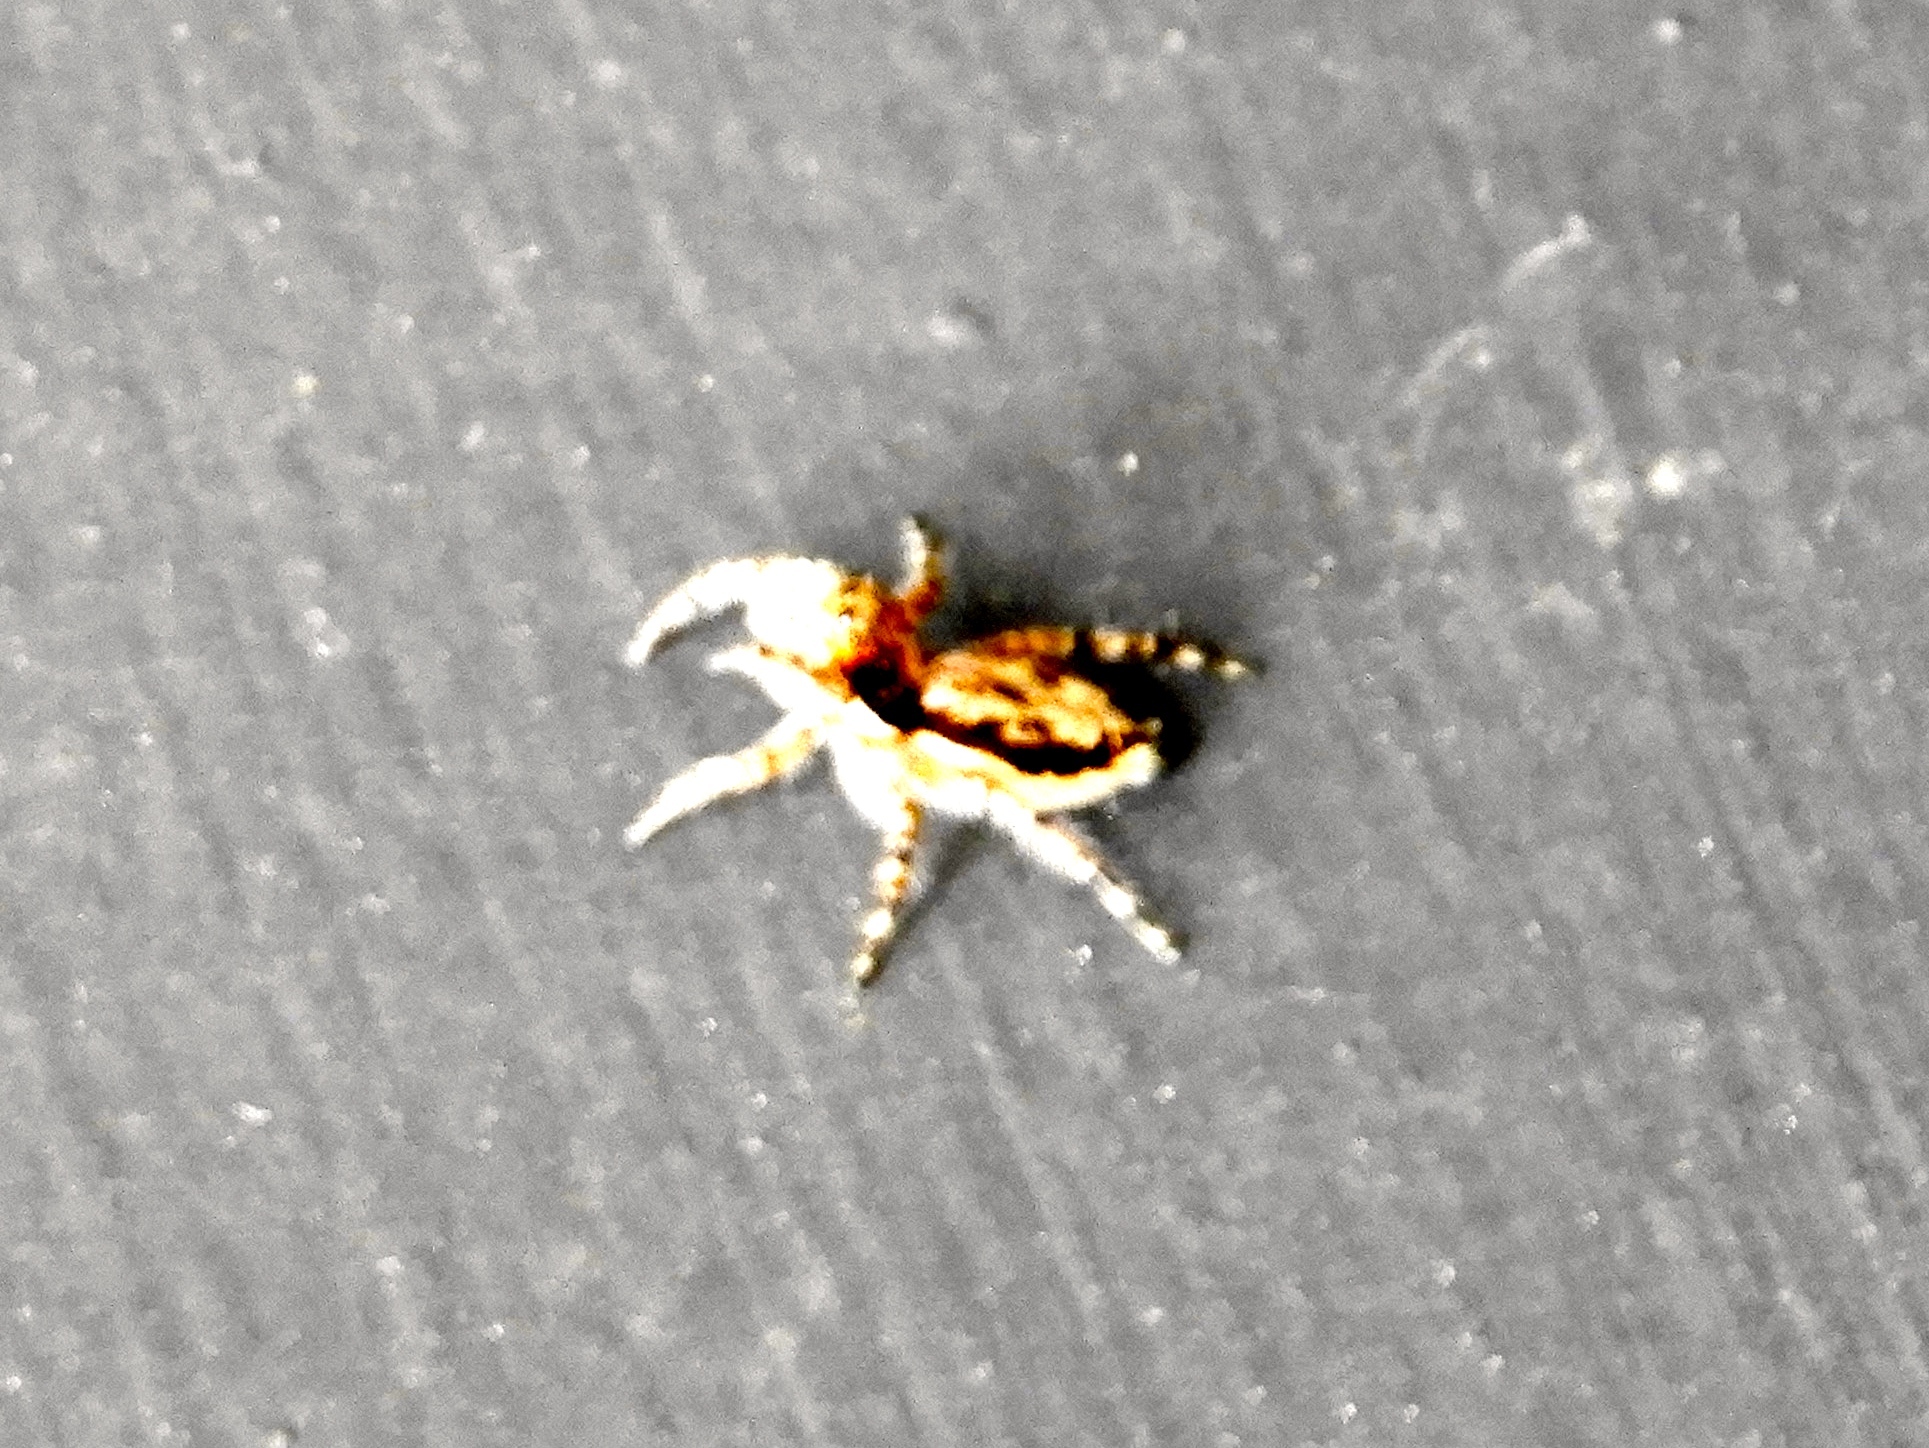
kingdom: Animalia
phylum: Arthropoda
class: Arachnida
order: Araneae
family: Salticidae
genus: Menemerus
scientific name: Menemerus bivittatus
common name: Gray wall jumper
